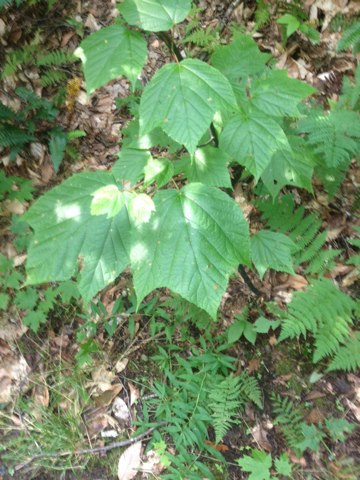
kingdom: Plantae
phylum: Tracheophyta
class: Magnoliopsida
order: Sapindales
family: Sapindaceae
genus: Acer
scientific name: Acer pensylvanicum
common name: Moosewood
